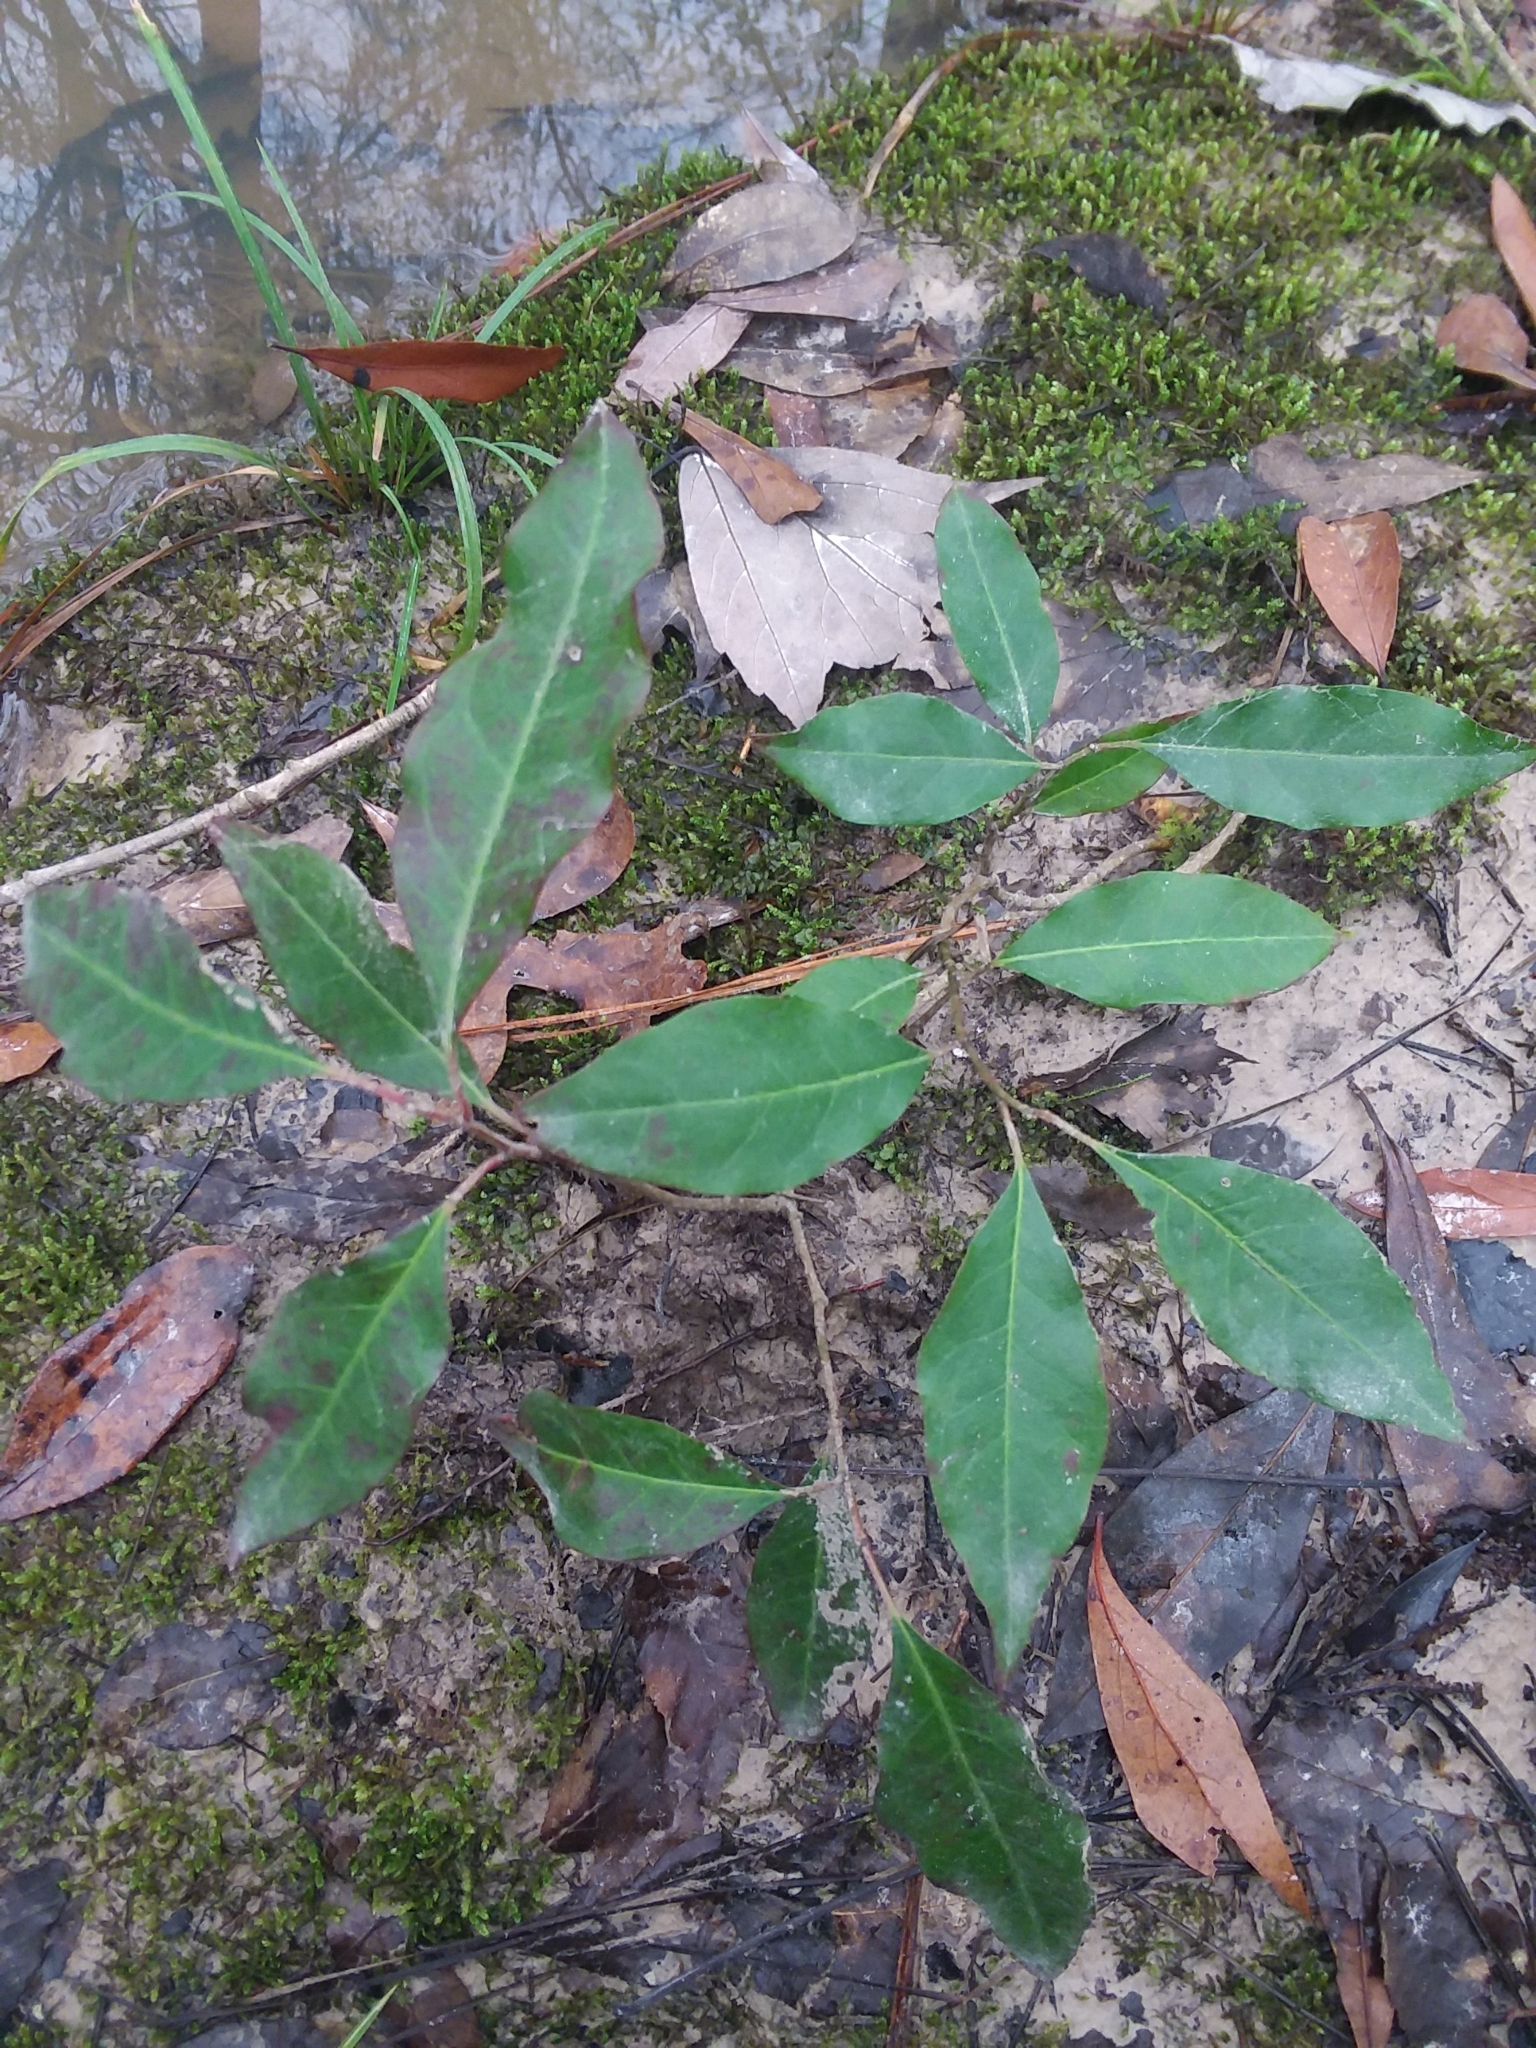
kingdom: Plantae
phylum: Tracheophyta
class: Magnoliopsida
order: Malpighiales
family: Euphorbiaceae
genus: Ditrysinia
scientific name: Ditrysinia fruticosa
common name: Gulf sebastian-bush
